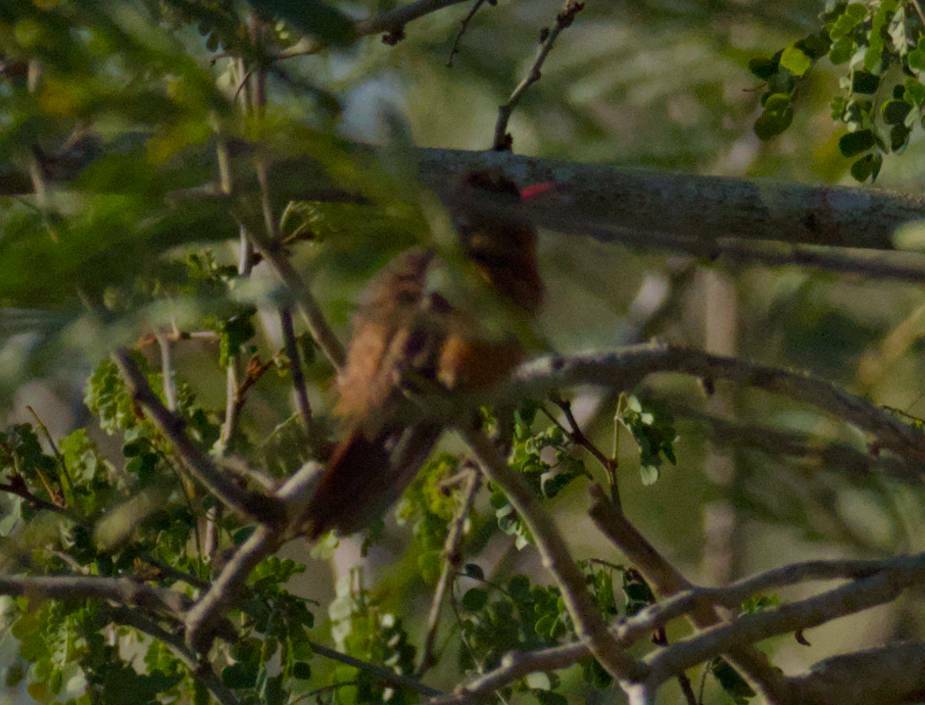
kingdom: Animalia
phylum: Chordata
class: Aves
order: Apodiformes
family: Trochilidae
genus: Amazilia
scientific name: Amazilia rutila
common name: Cinnamon hummingbird
